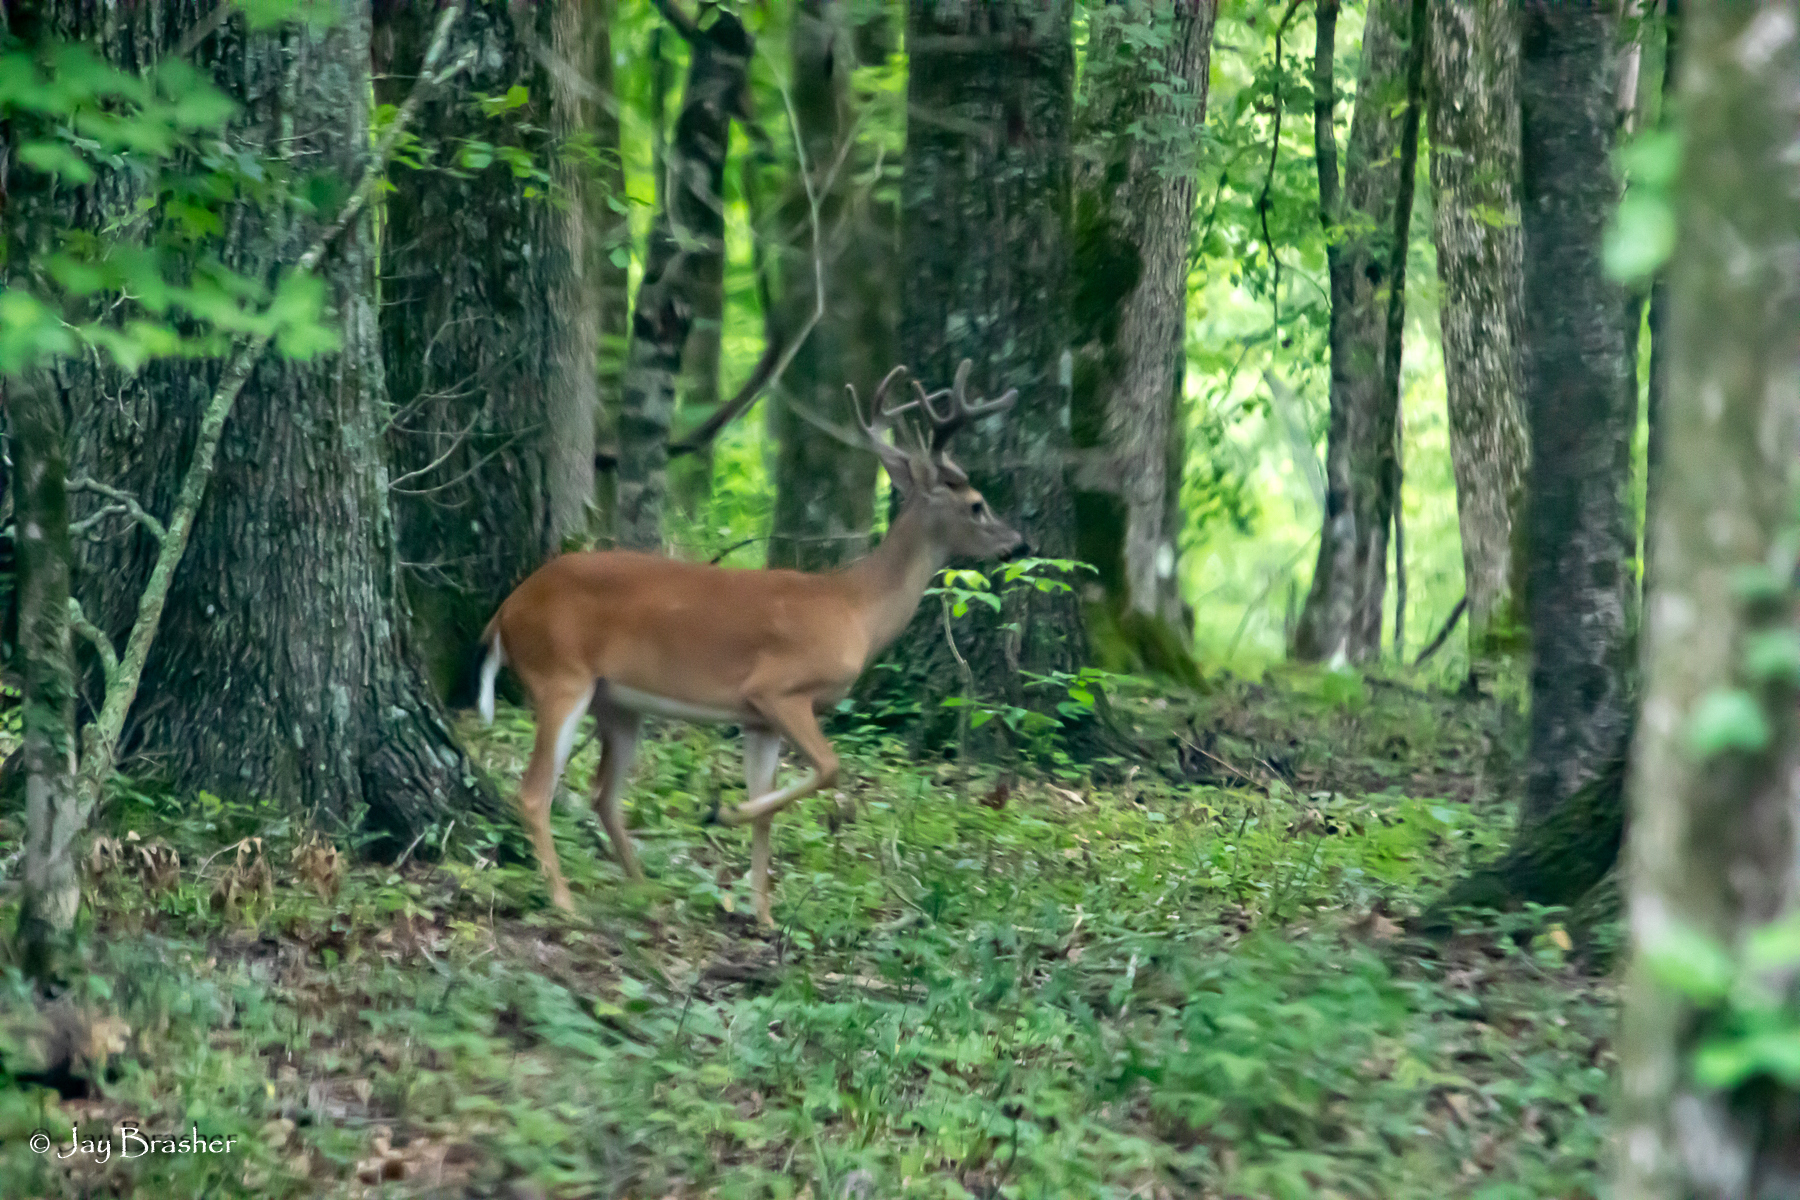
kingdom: Animalia
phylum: Chordata
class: Mammalia
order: Artiodactyla
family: Cervidae
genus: Odocoileus
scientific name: Odocoileus virginianus
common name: White-tailed deer
